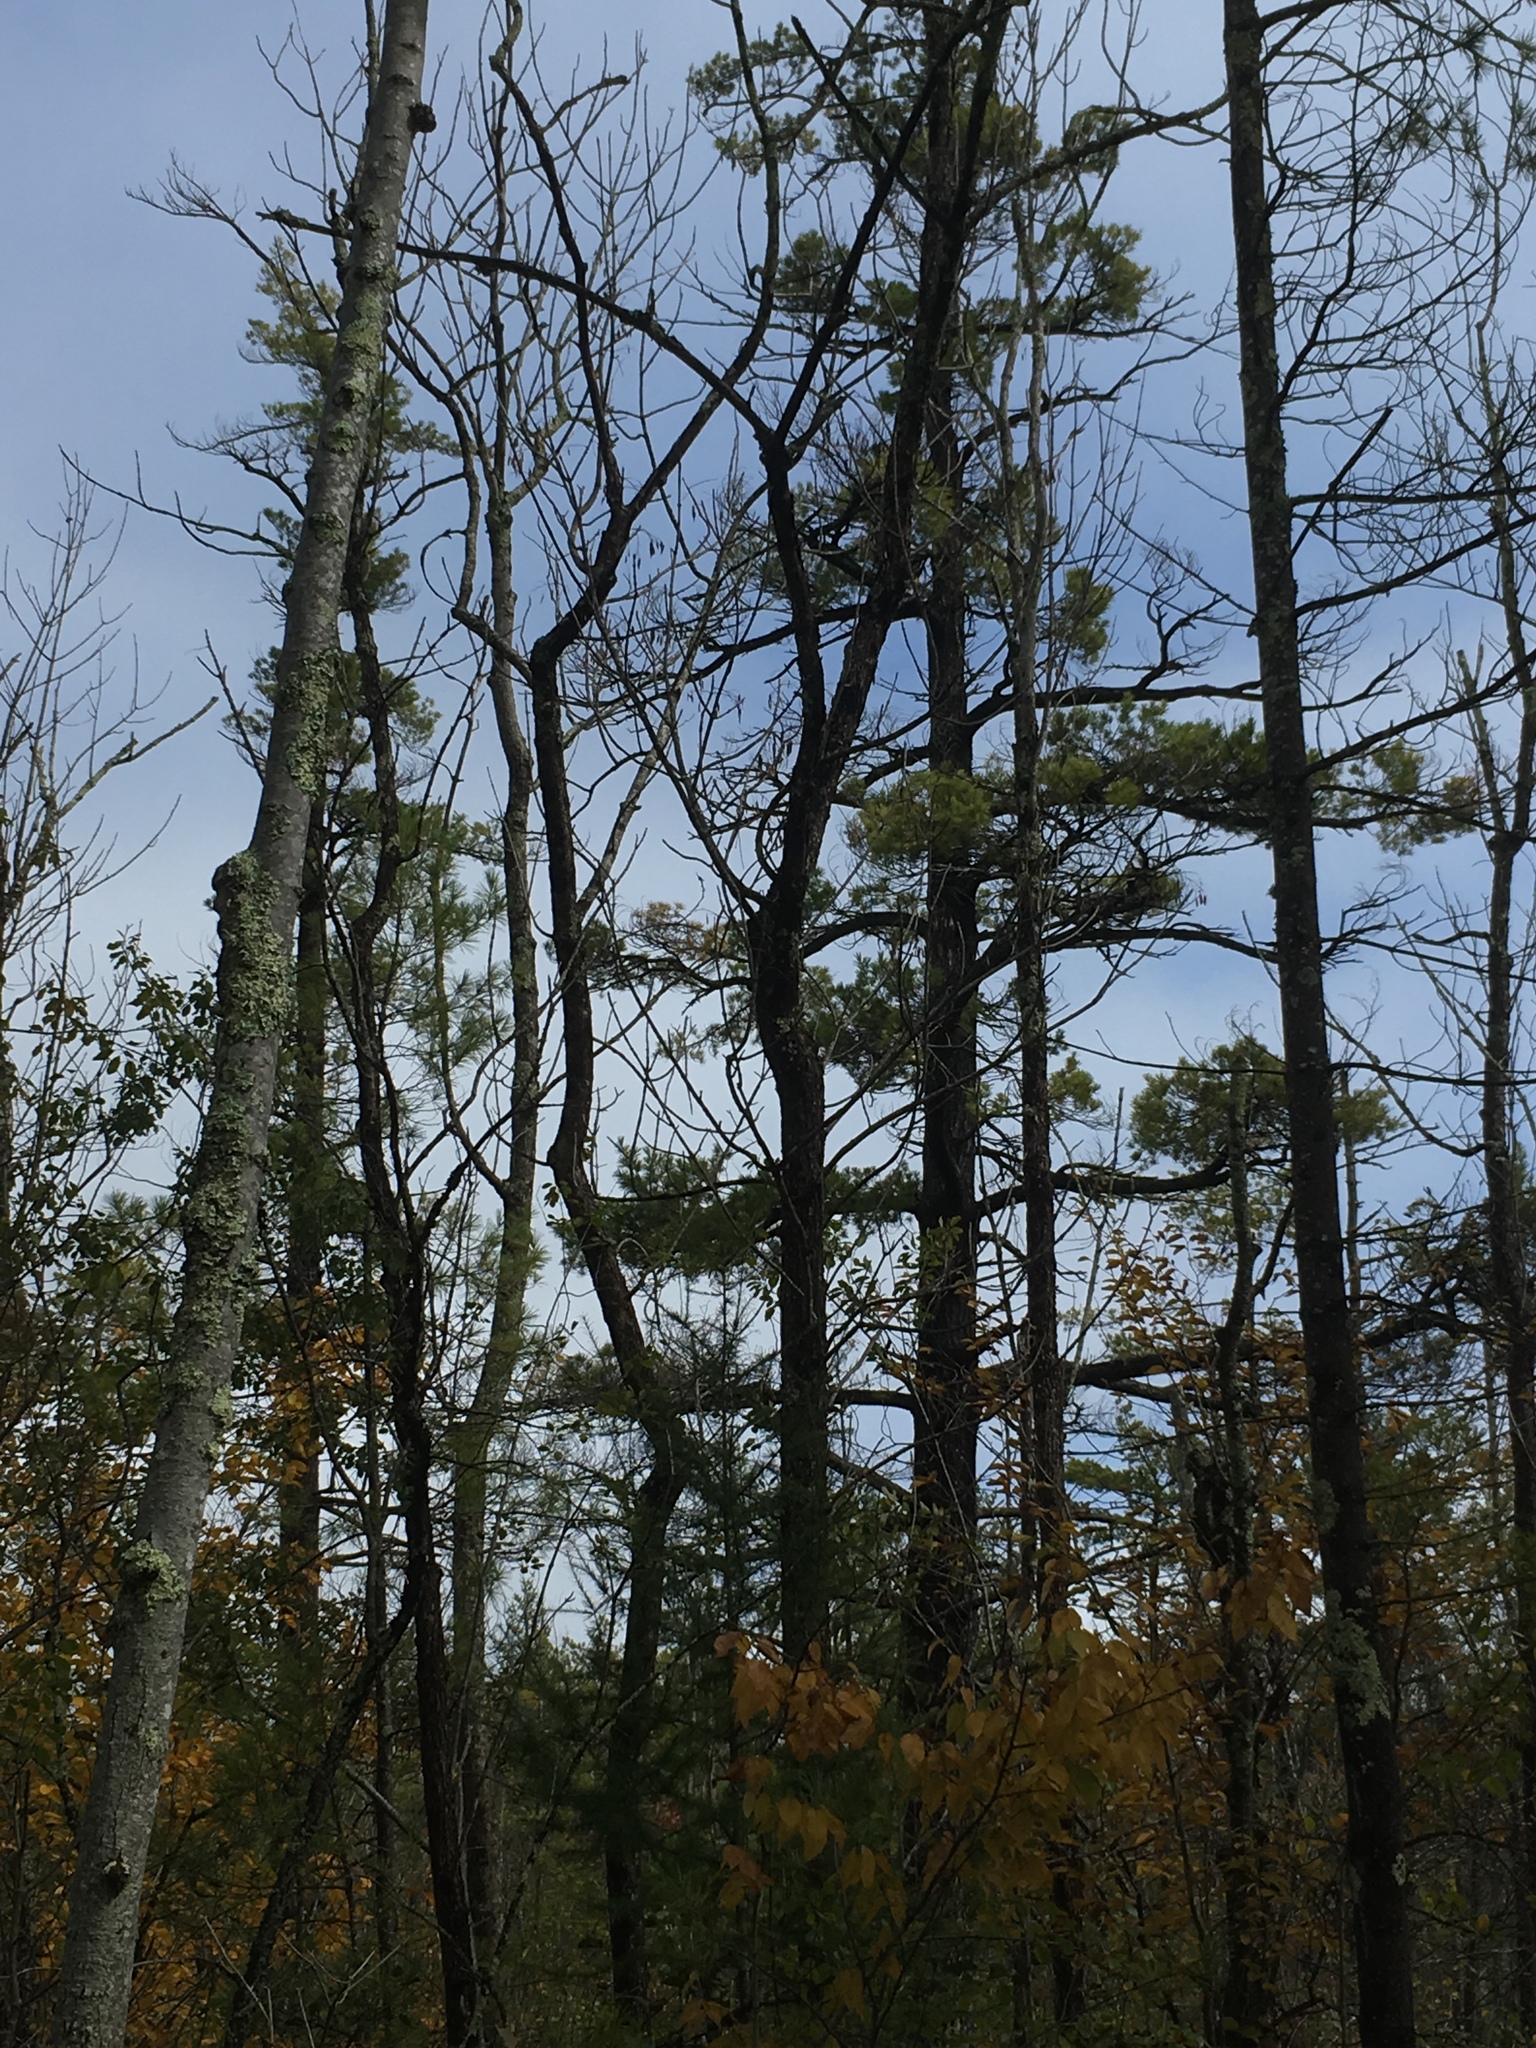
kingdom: Plantae
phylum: Tracheophyta
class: Pinopsida
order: Pinales
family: Pinaceae
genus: Pinus
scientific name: Pinus strobus
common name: Weymouth pine
